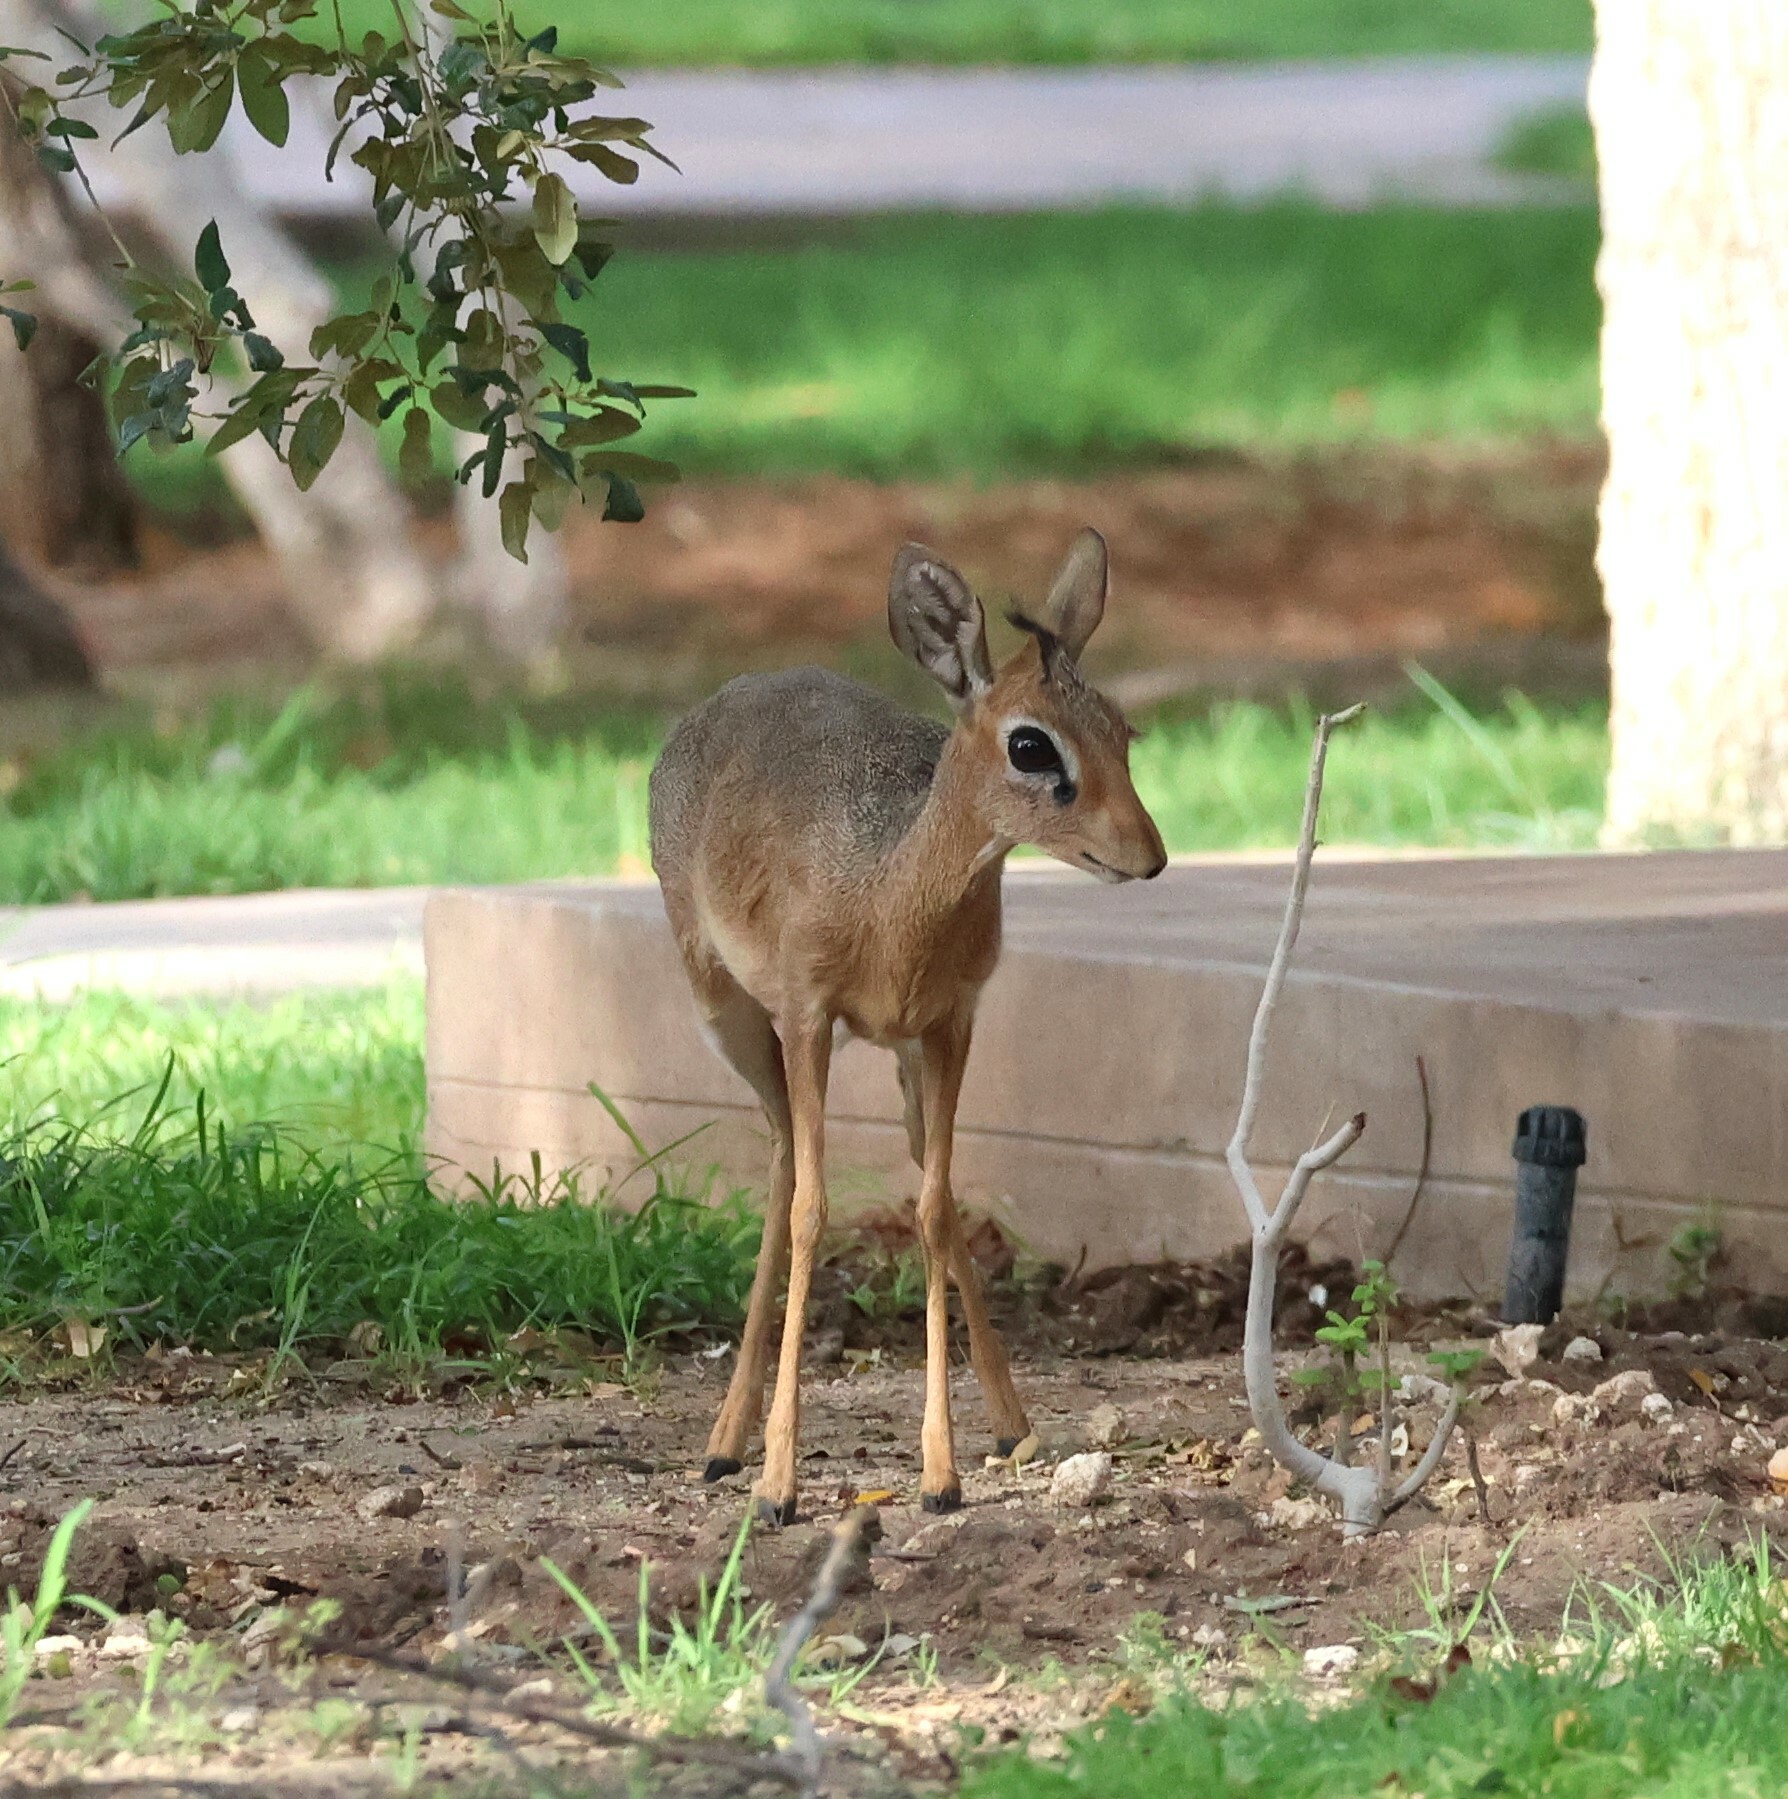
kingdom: Animalia
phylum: Chordata
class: Mammalia
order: Artiodactyla
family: Bovidae
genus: Madoqua
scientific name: Madoqua kirkii
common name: Kirk's dik-dik
